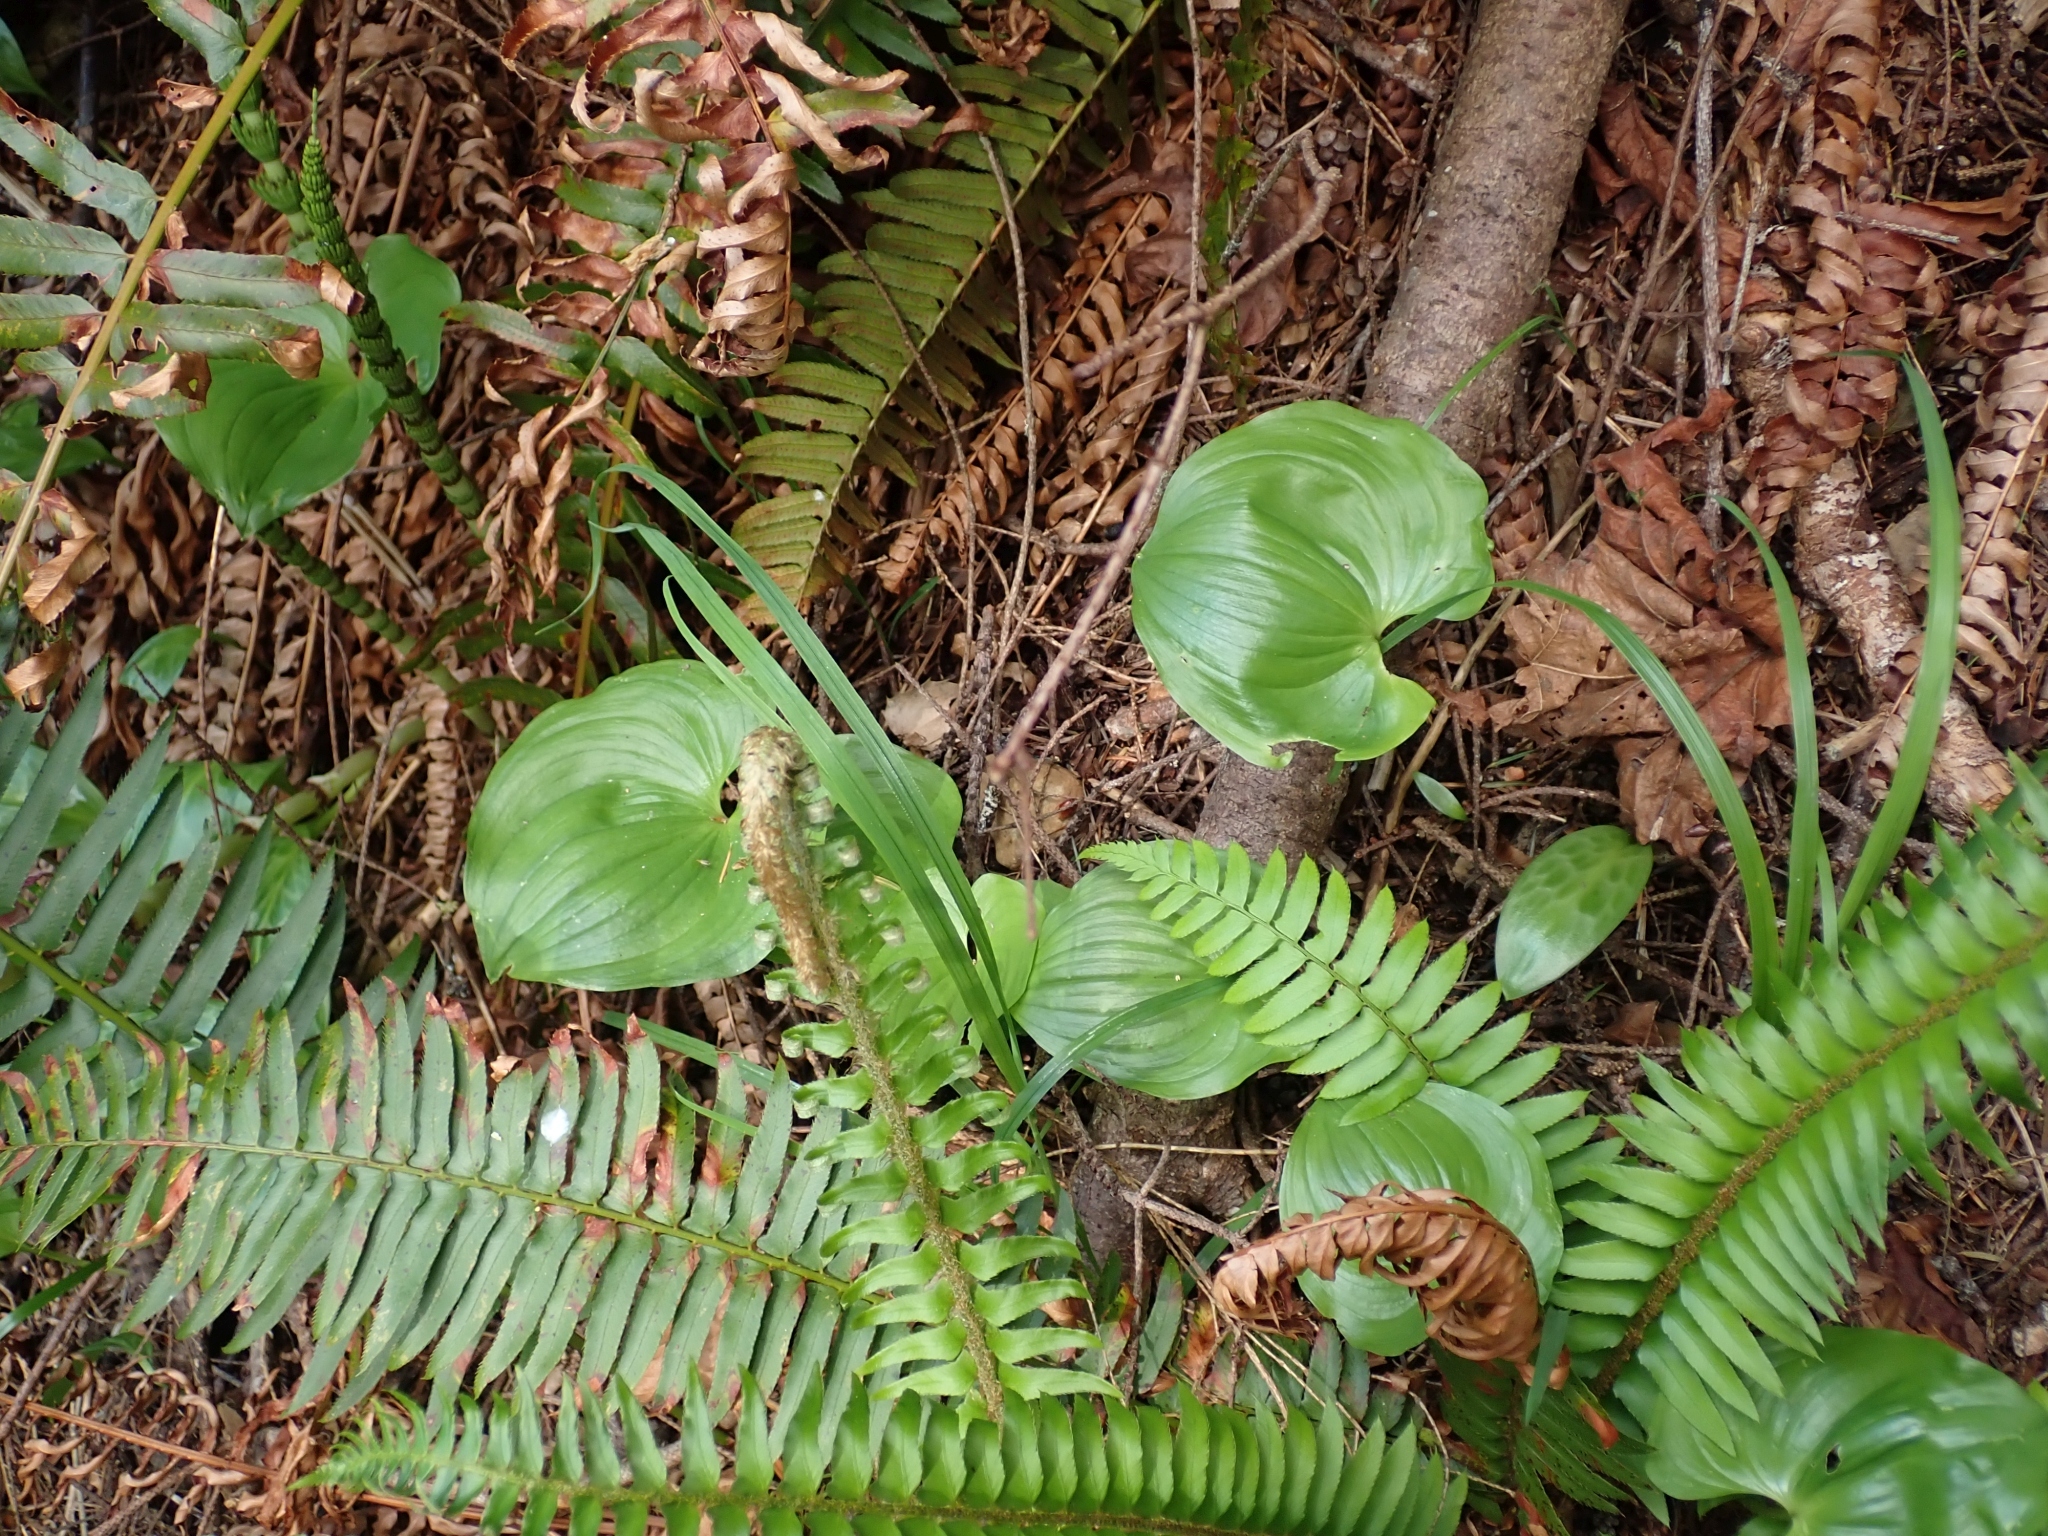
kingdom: Plantae
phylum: Tracheophyta
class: Liliopsida
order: Asparagales
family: Asparagaceae
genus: Maianthemum
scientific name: Maianthemum dilatatum
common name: False lily-of-the-valley
